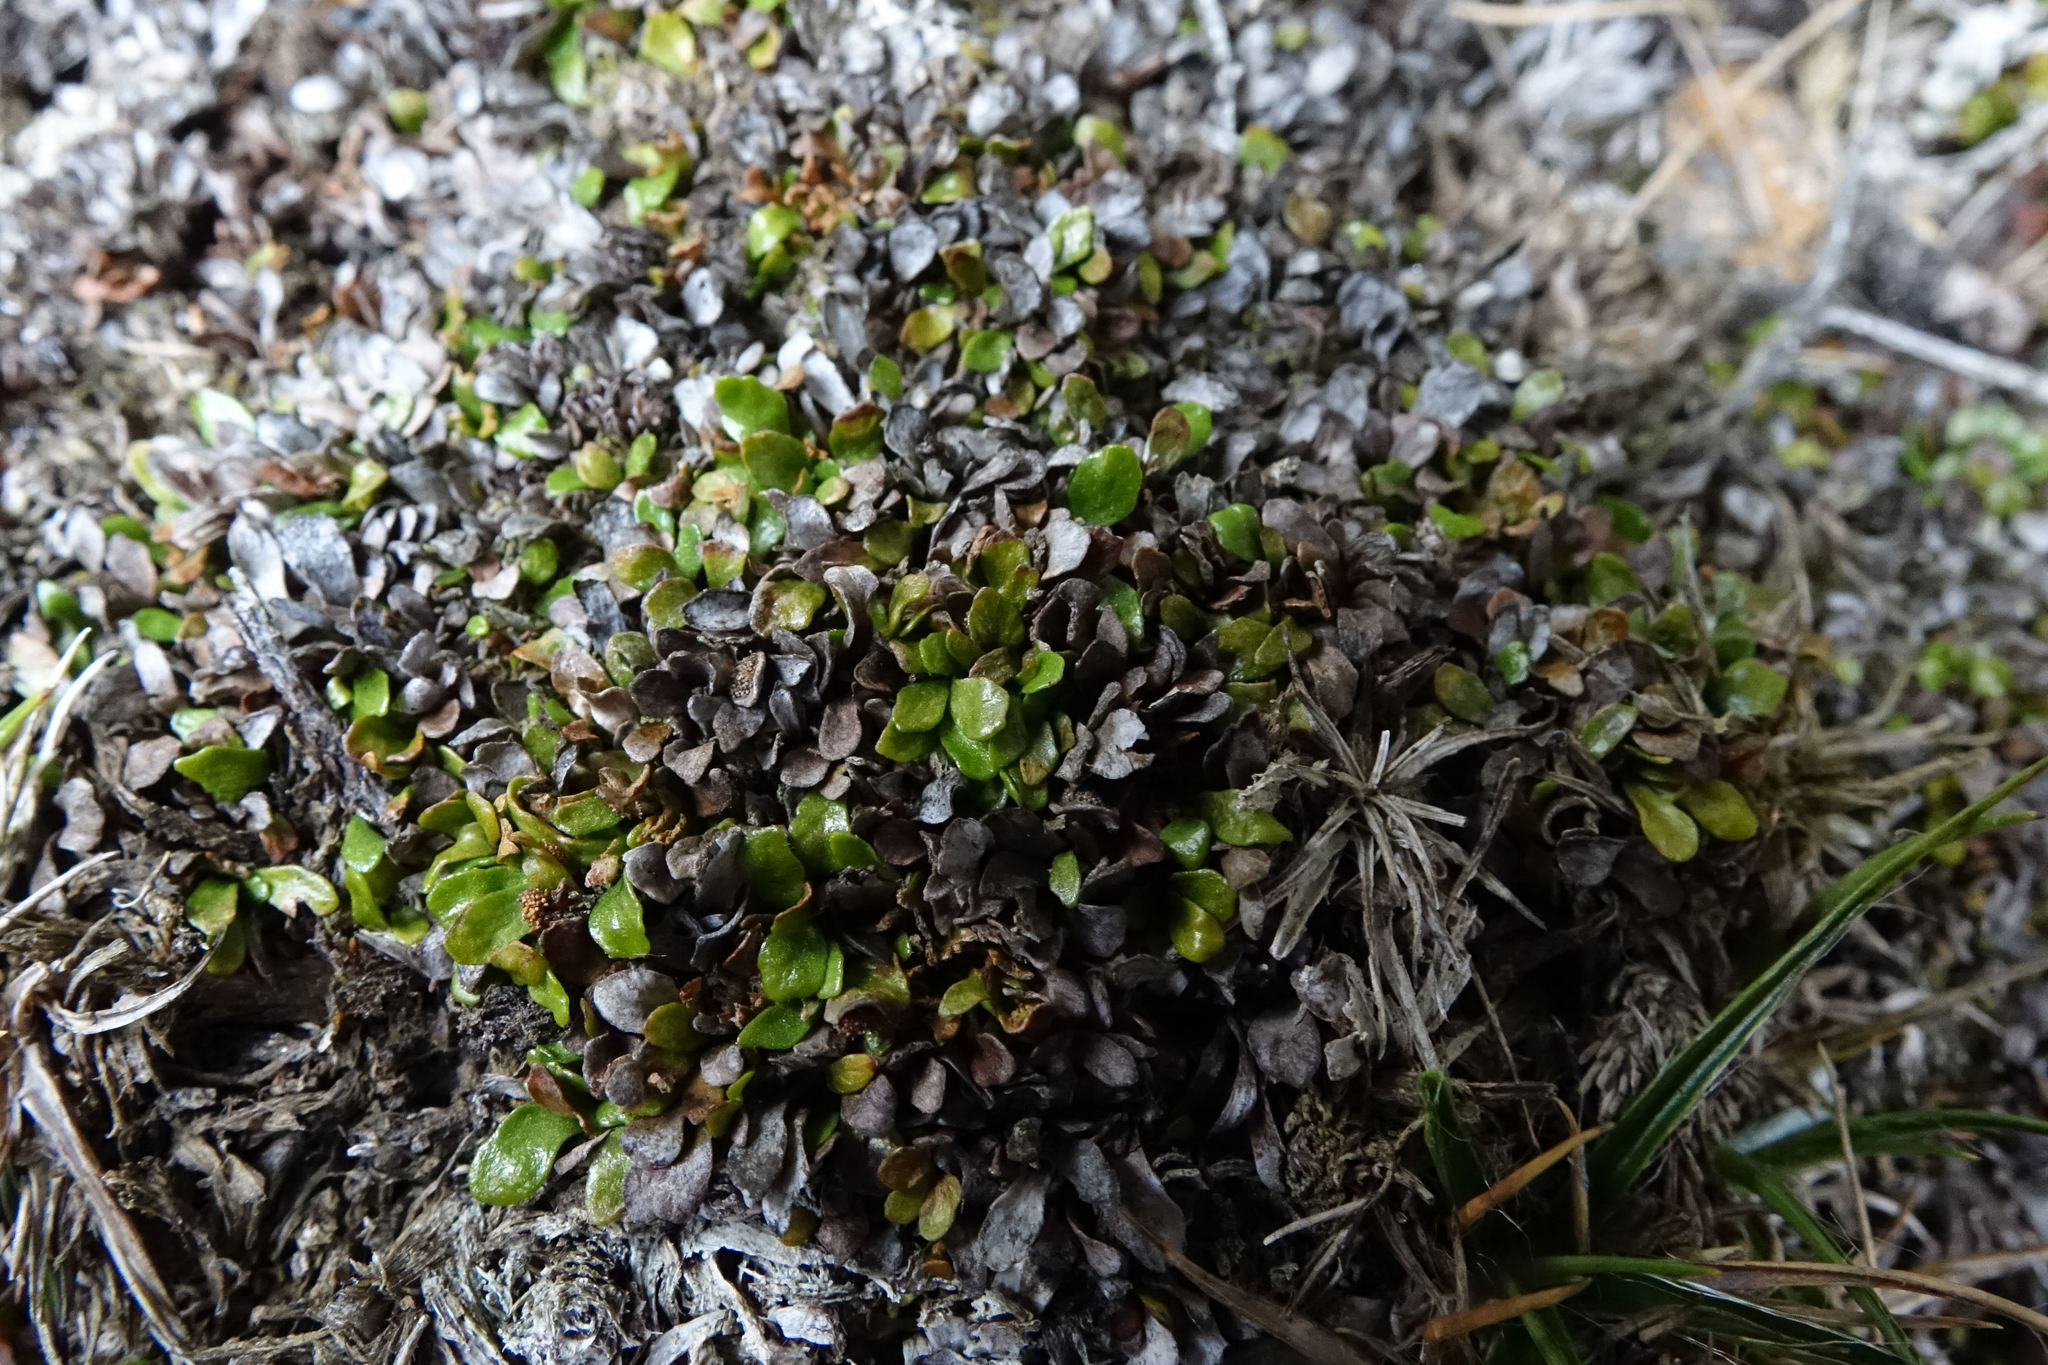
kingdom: Plantae
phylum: Tracheophyta
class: Polypodiopsida
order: Polypodiales
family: Polypodiaceae
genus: Notogrammitis
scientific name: Notogrammitis crassior
